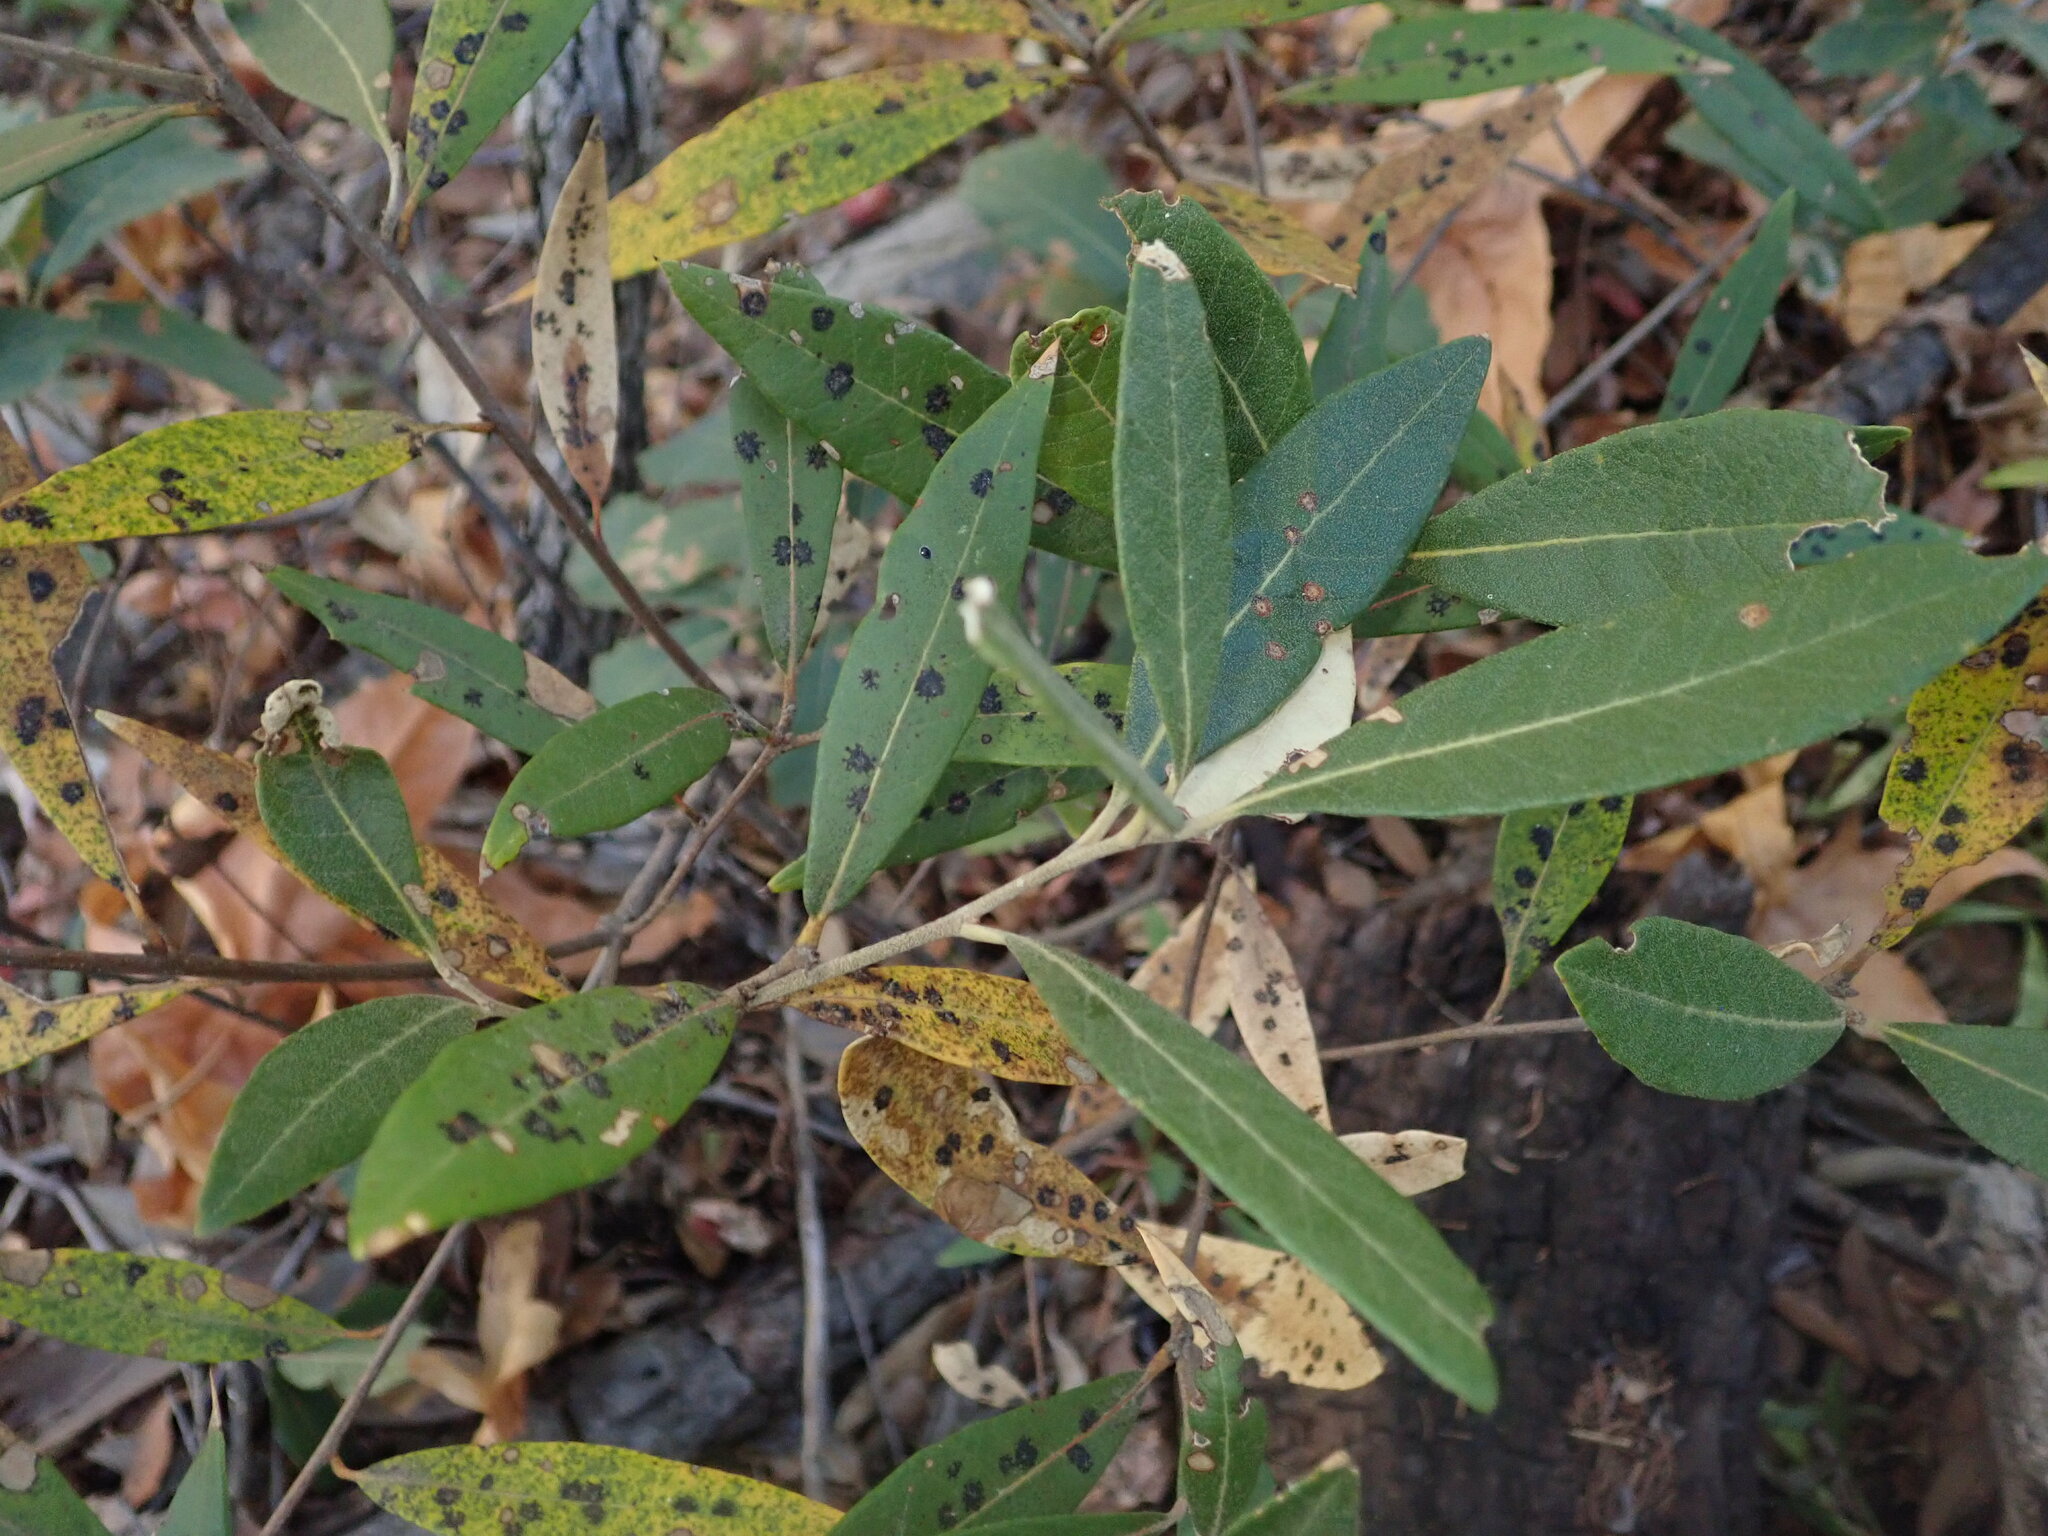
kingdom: Plantae
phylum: Tracheophyta
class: Magnoliopsida
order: Fagales
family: Fagaceae
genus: Quercus
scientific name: Quercus hypoleucoides
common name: Silverleaf oak
